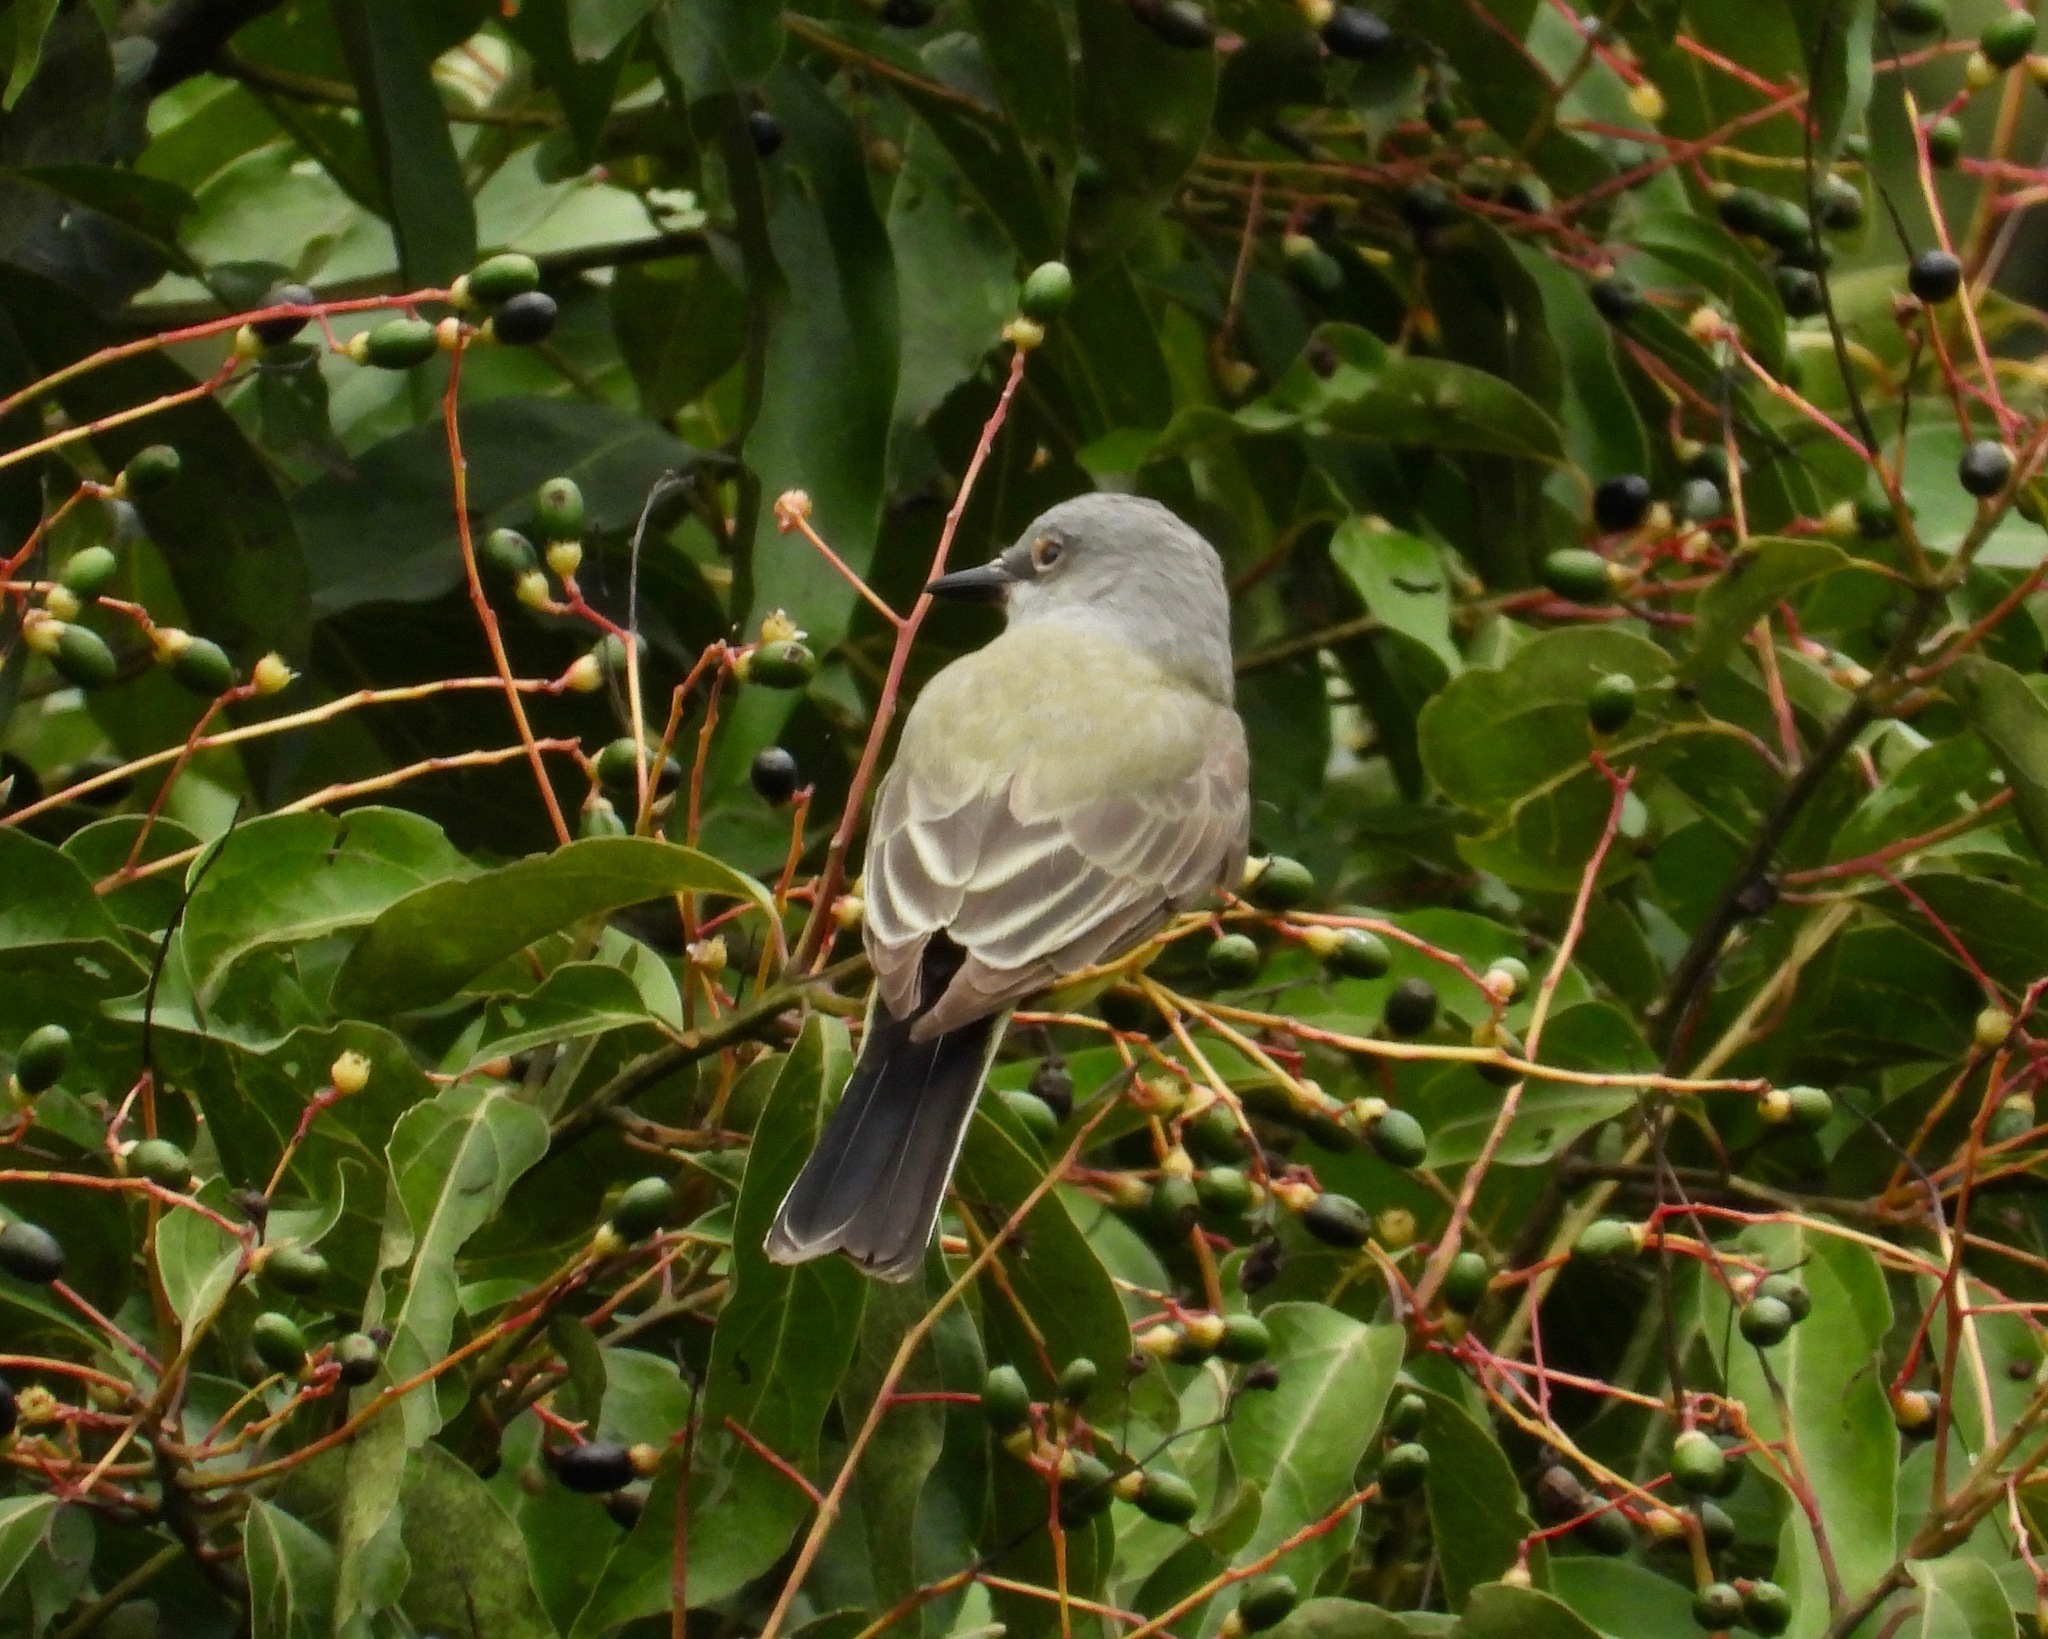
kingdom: Animalia
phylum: Chordata
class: Aves
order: Passeriformes
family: Tyrannidae
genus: Tyrannus
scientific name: Tyrannus verticalis
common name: Western kingbird
